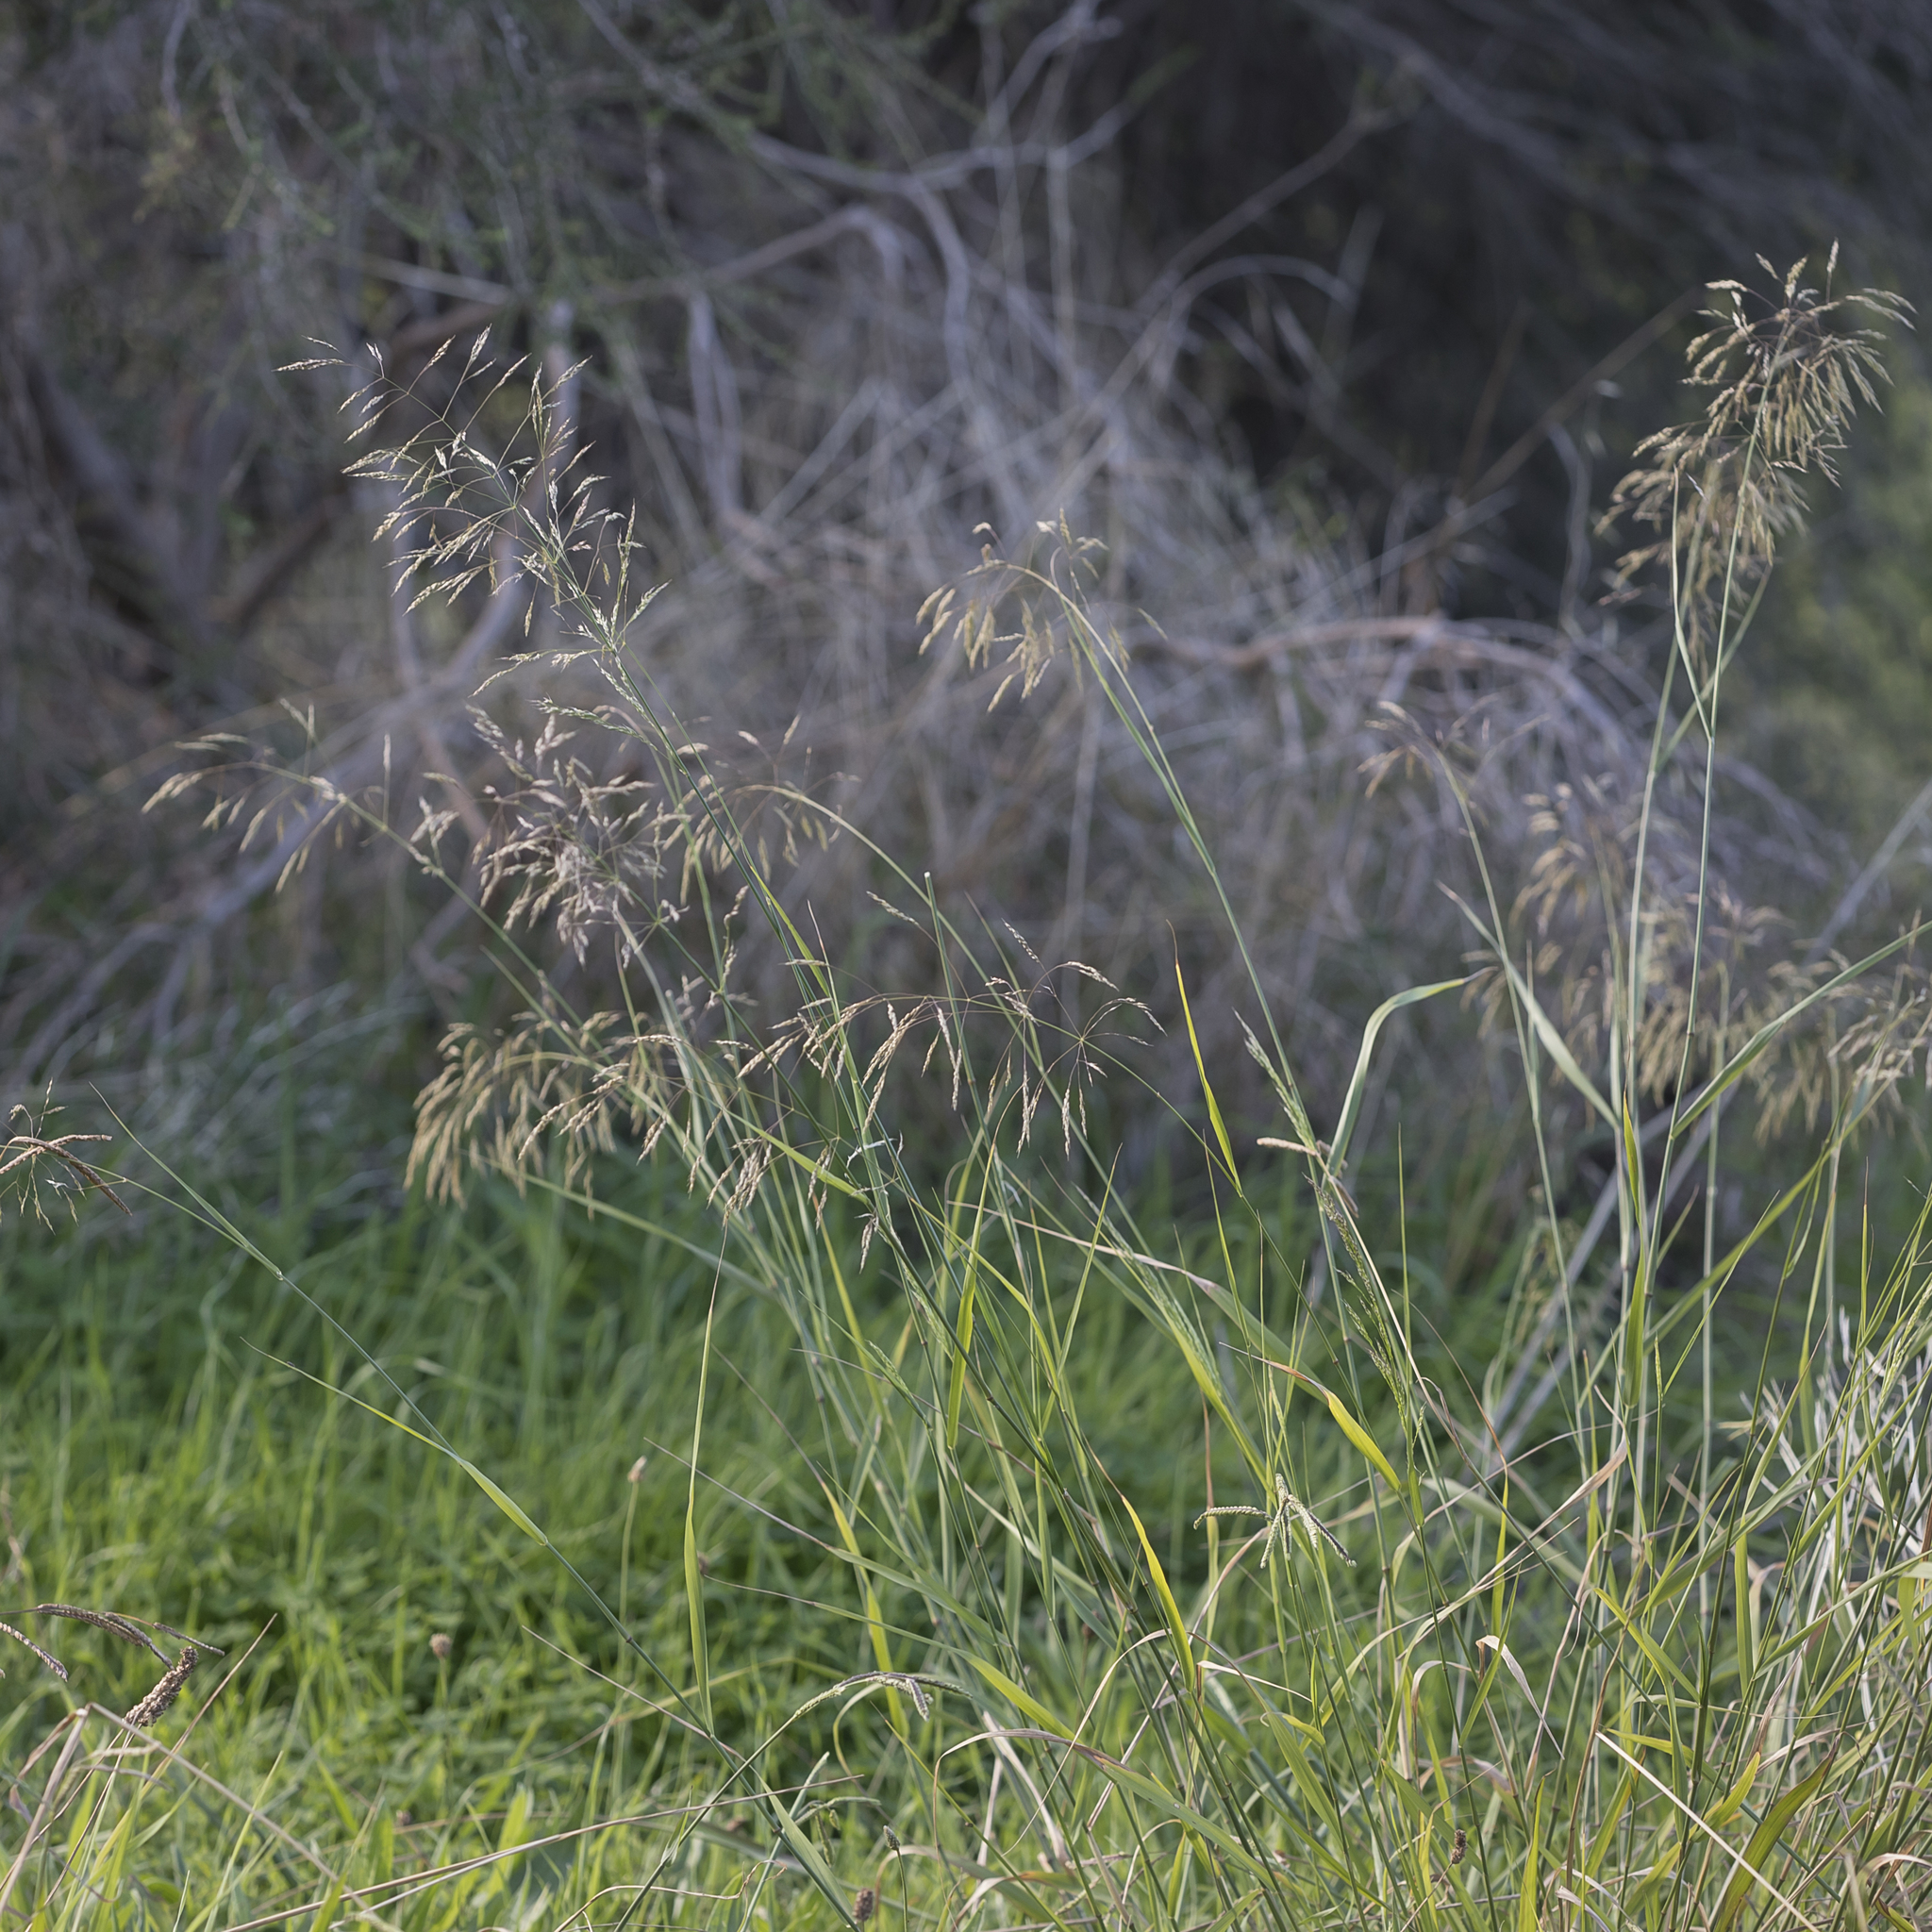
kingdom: Plantae
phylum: Tracheophyta
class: Liliopsida
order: Poales
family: Poaceae
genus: Oloptum
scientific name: Oloptum miliaceum
